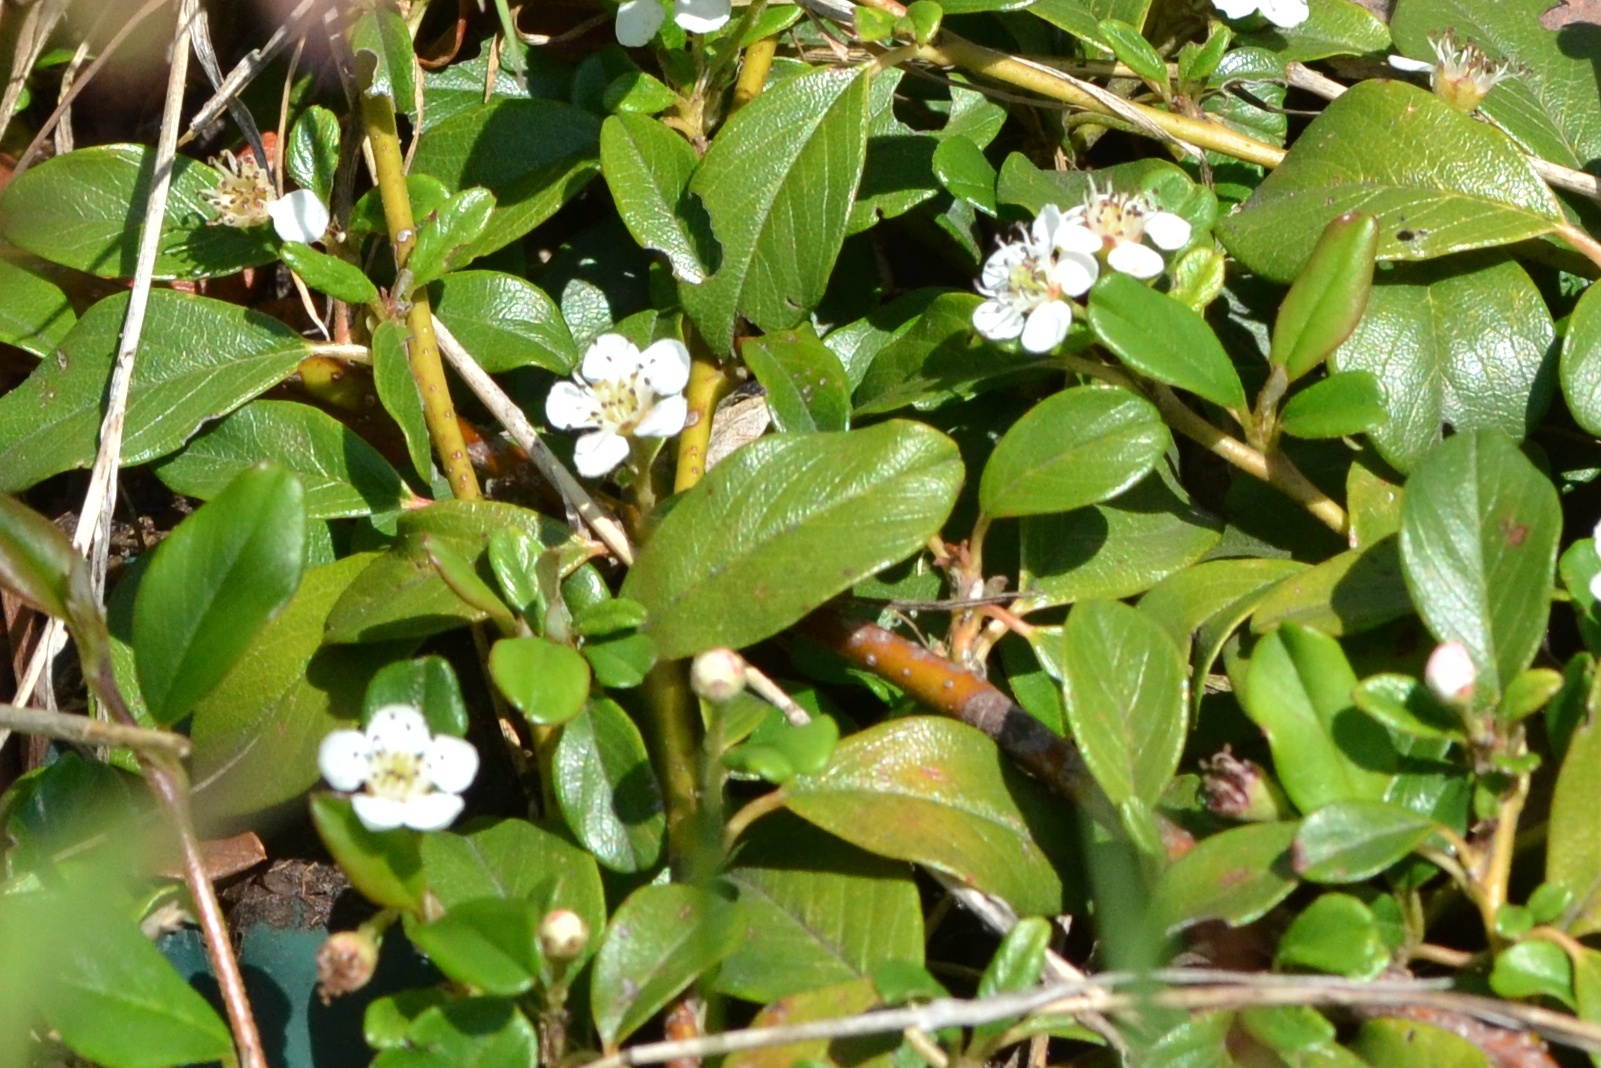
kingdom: Plantae
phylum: Tracheophyta
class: Magnoliopsida
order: Rosales
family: Rosaceae
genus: Cotoneaster
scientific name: Cotoneaster dammeri
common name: Bearberry cotoneaster
